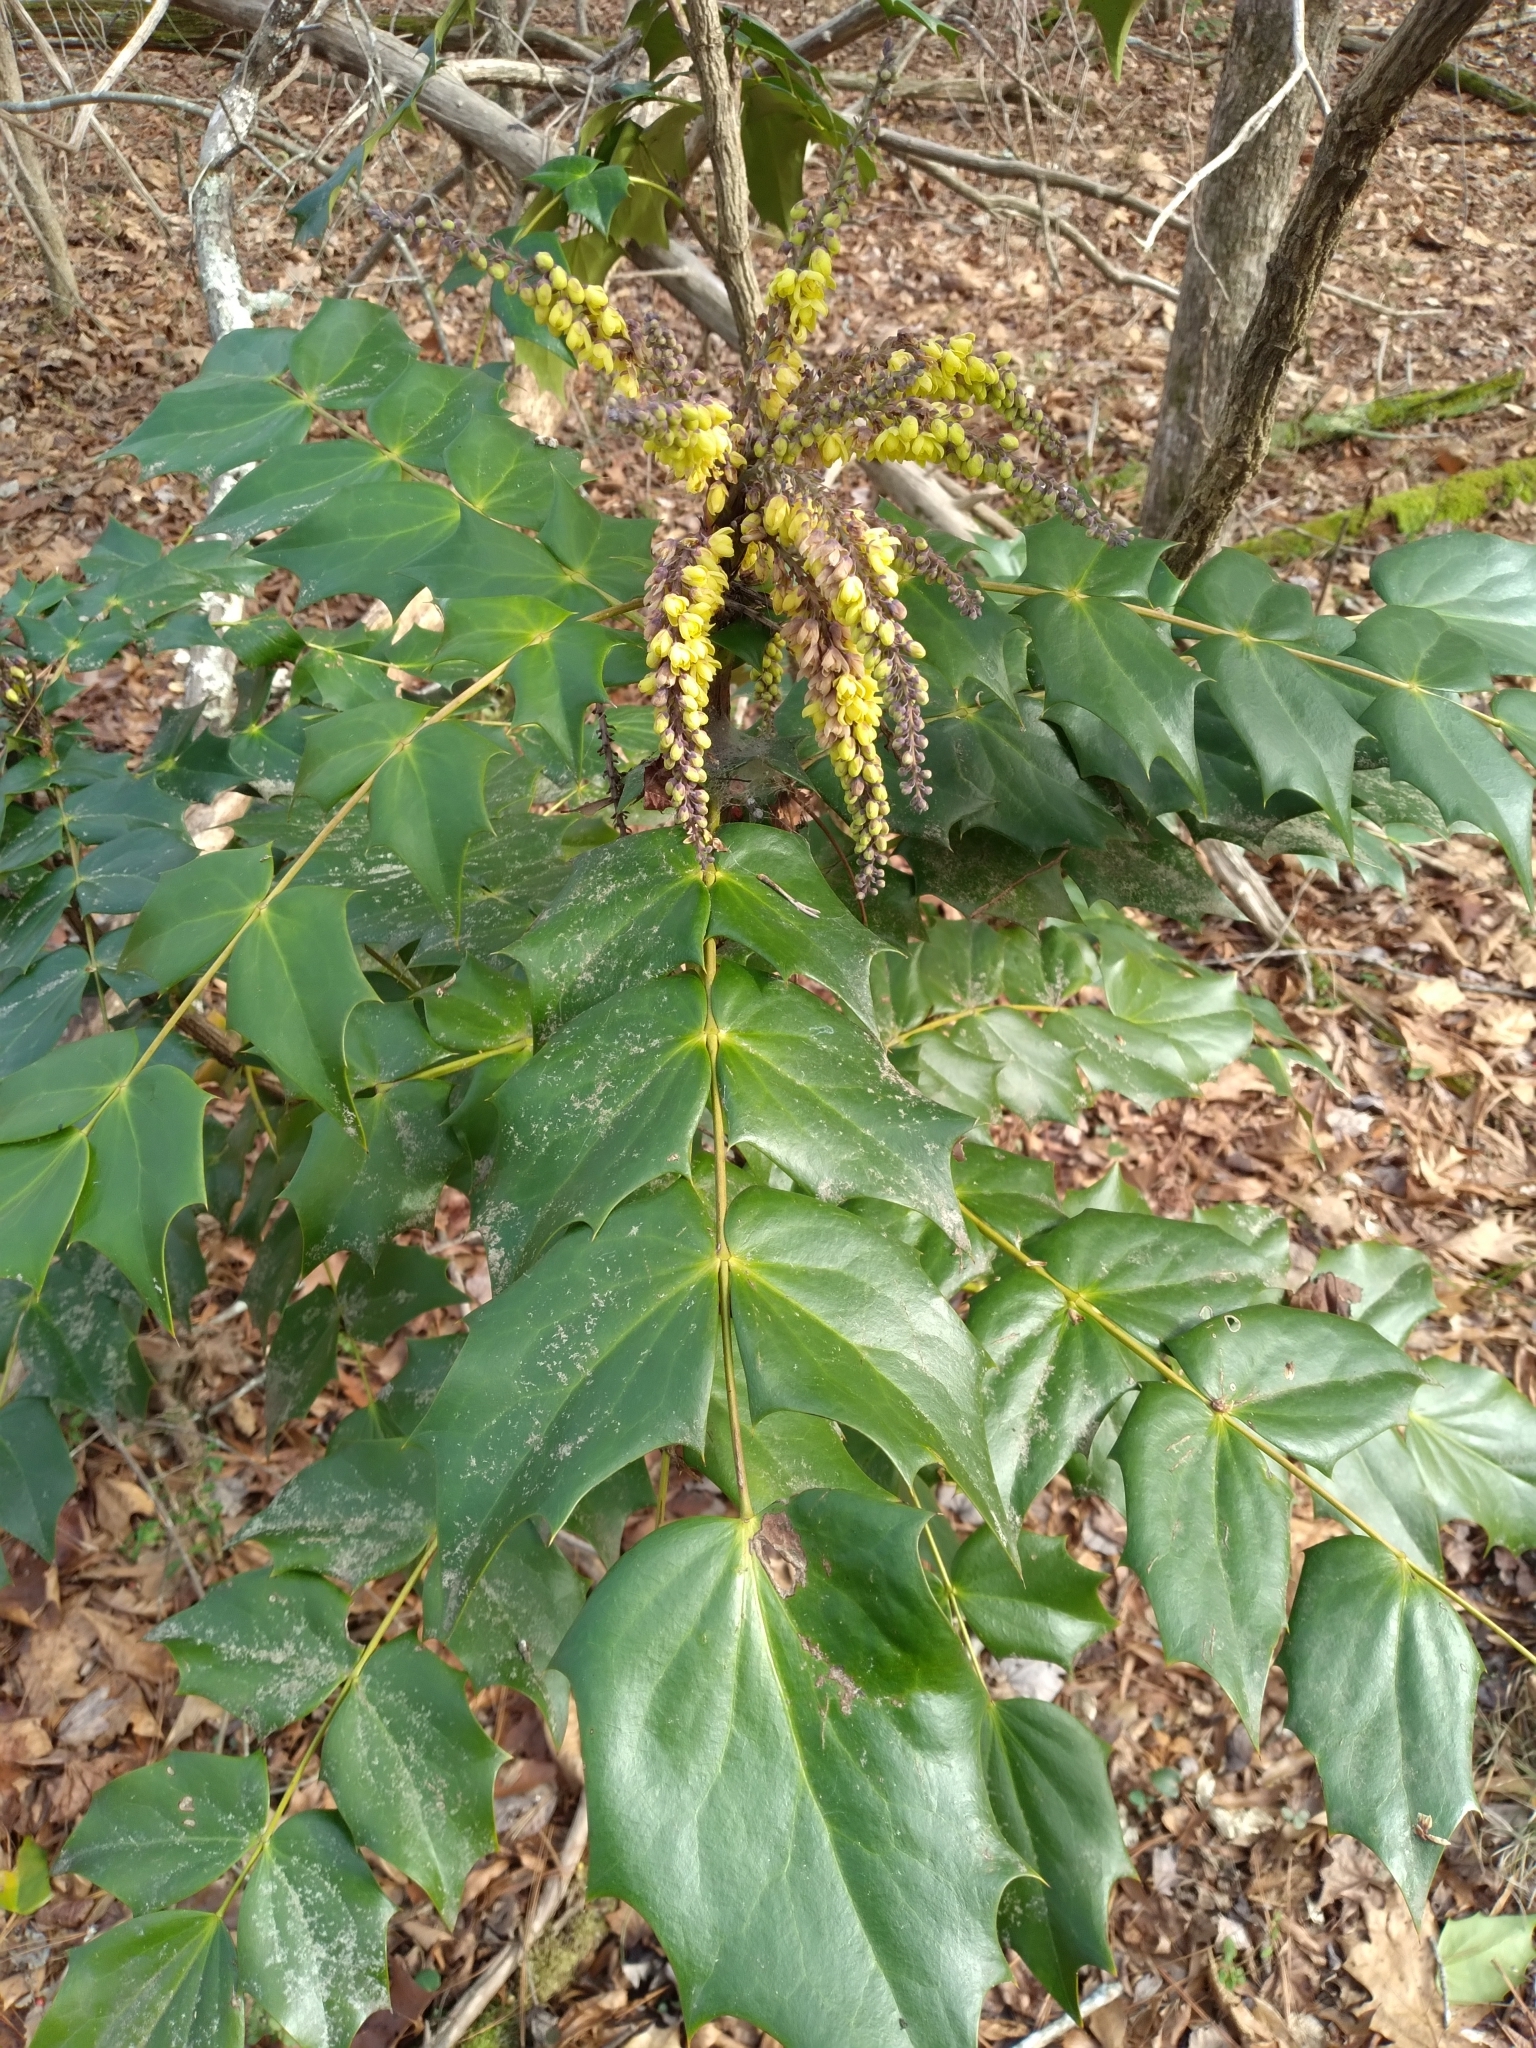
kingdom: Plantae
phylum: Tracheophyta
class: Magnoliopsida
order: Ranunculales
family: Berberidaceae
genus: Mahonia
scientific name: Mahonia bealei
